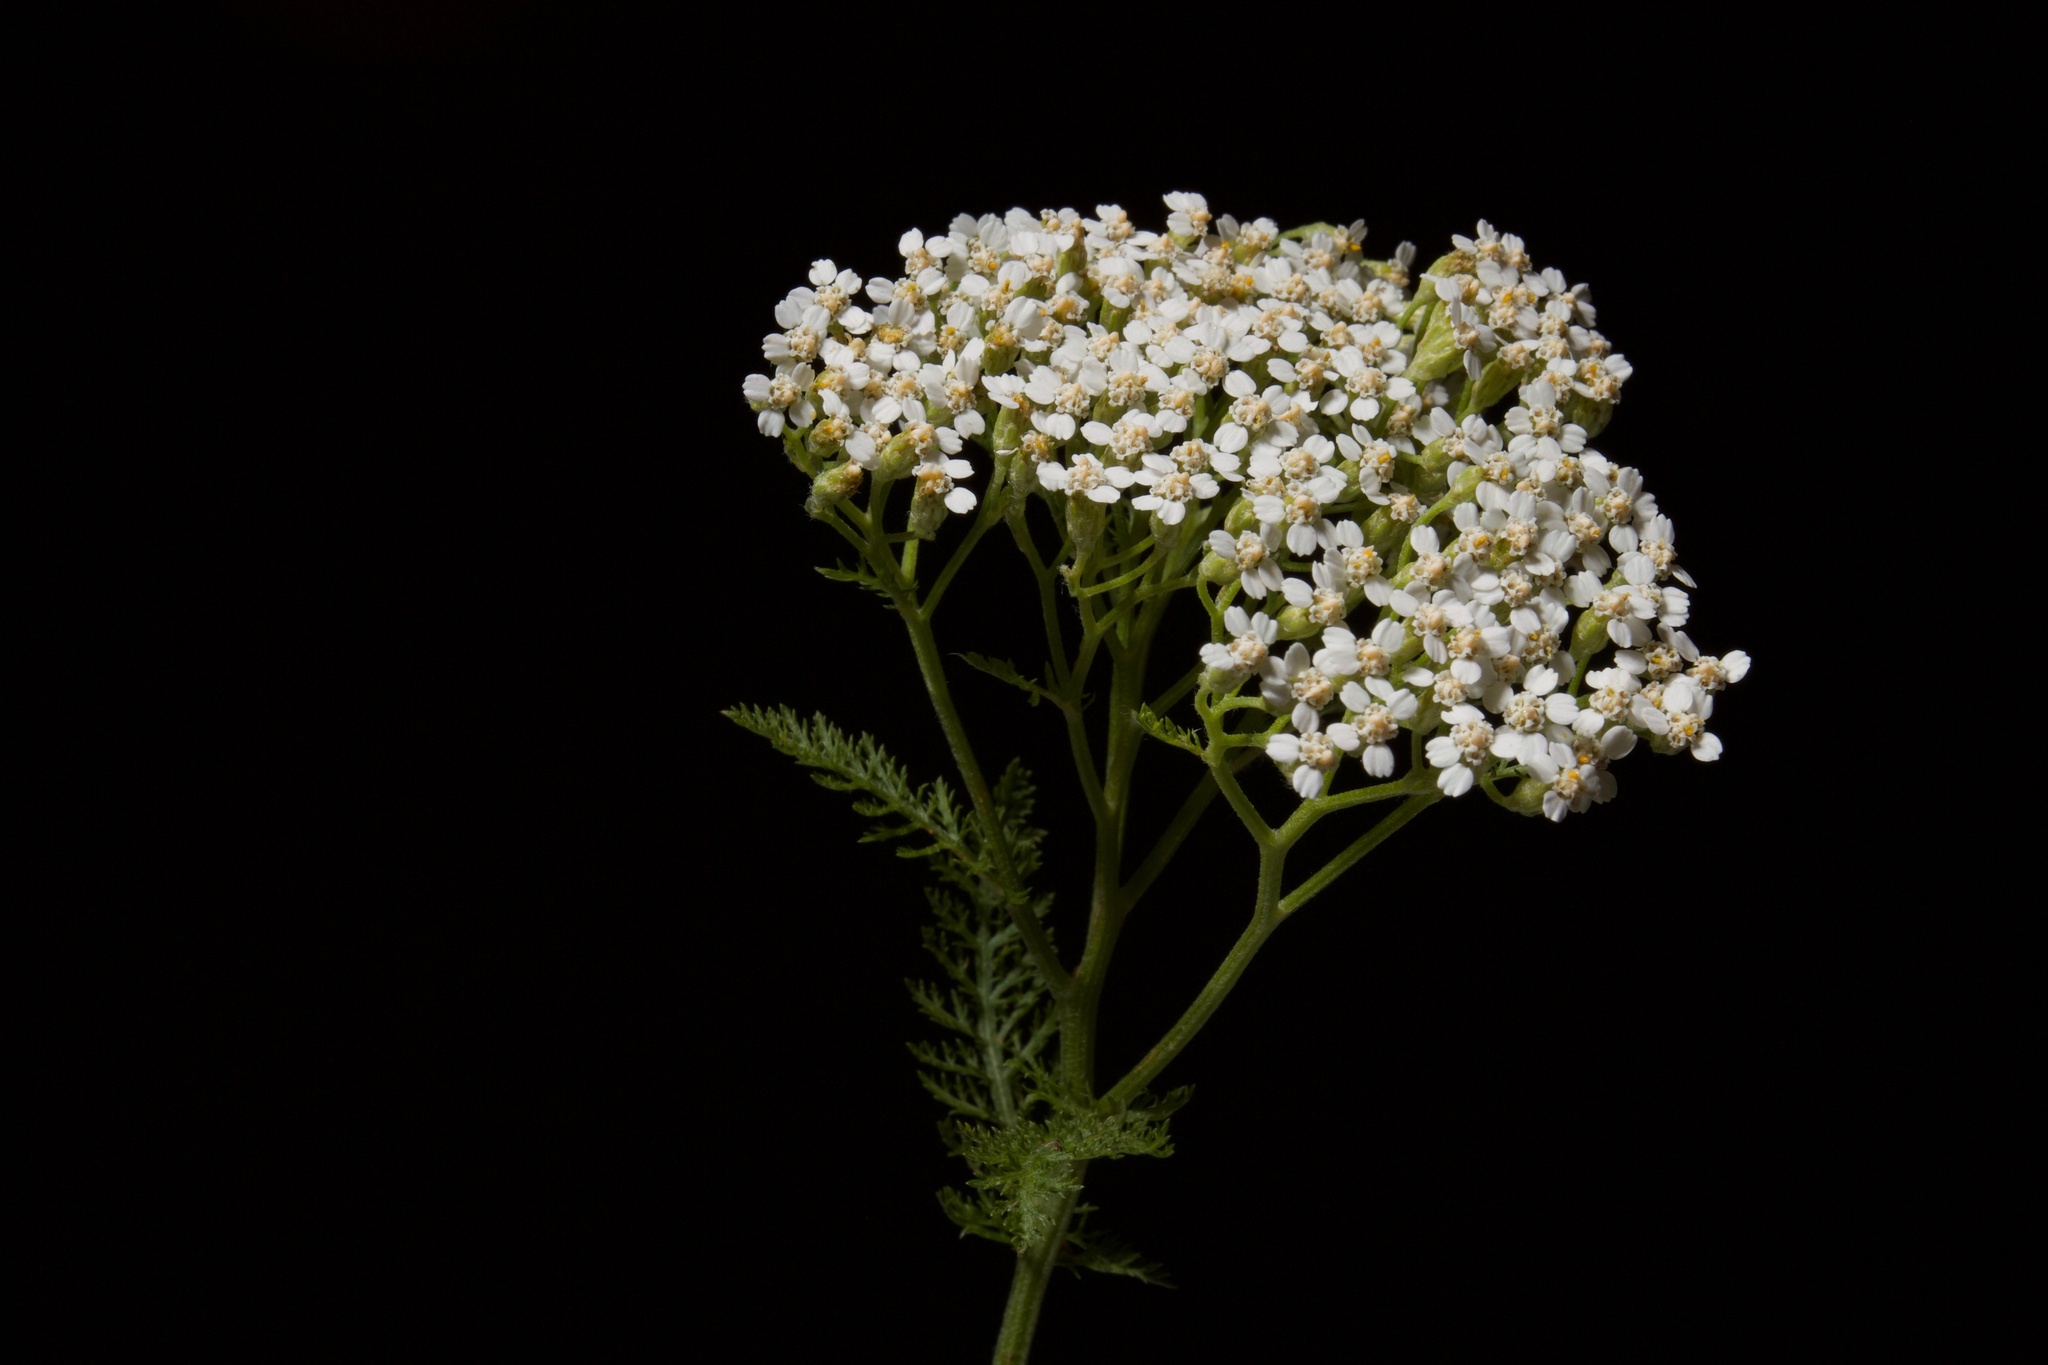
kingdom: Plantae
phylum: Tracheophyta
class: Magnoliopsida
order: Asterales
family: Asteraceae
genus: Achillea
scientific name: Achillea millefolium
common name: Yarrow
